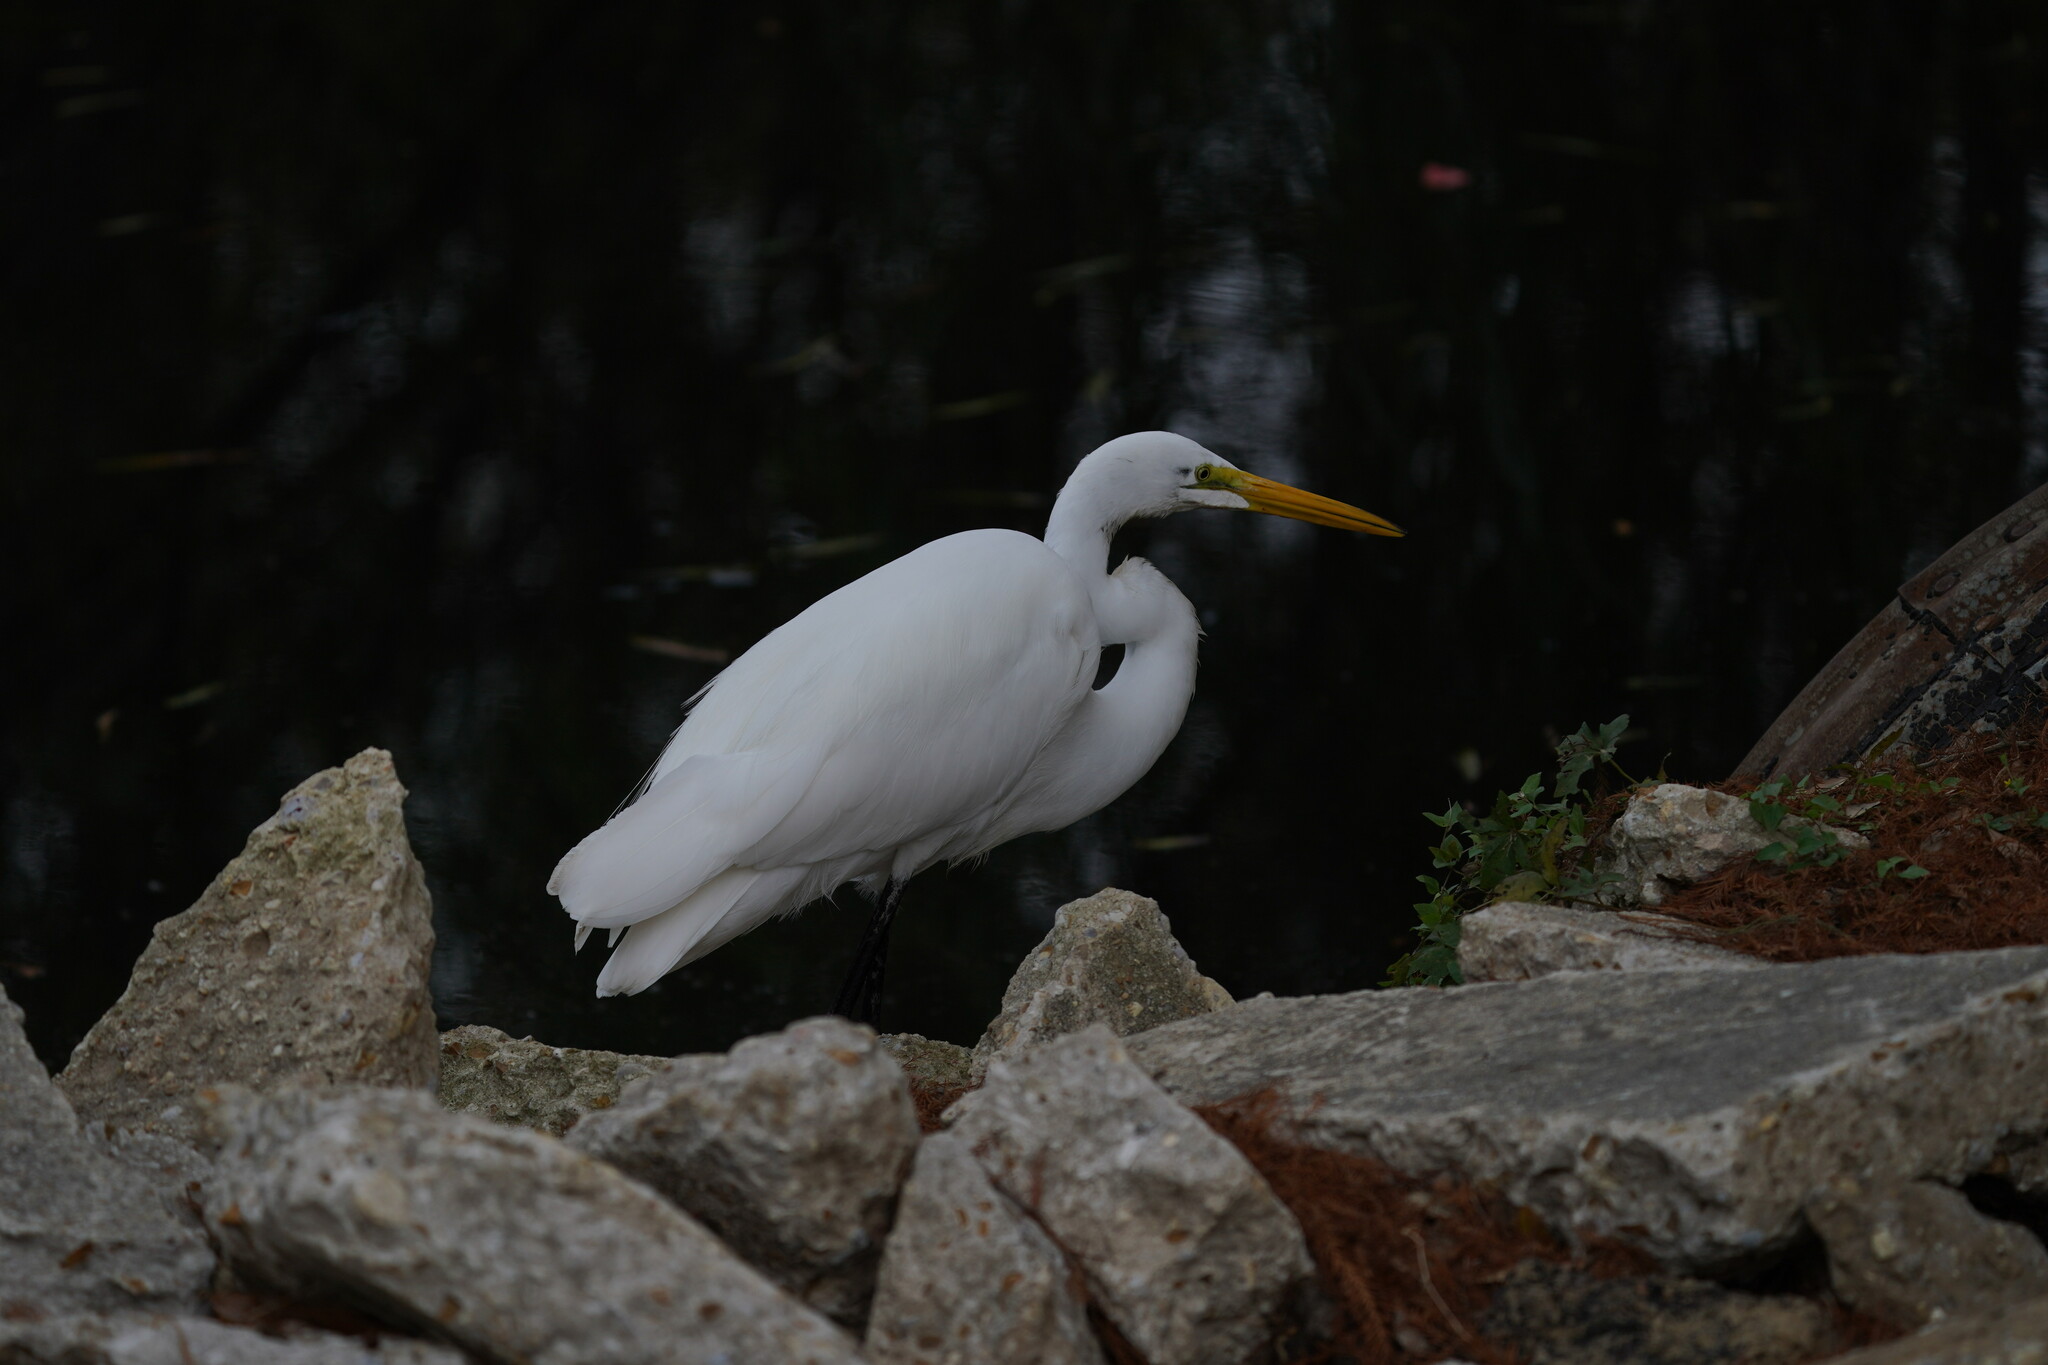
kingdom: Animalia
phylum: Chordata
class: Aves
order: Pelecaniformes
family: Ardeidae
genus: Ardea
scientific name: Ardea alba
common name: Great egret
